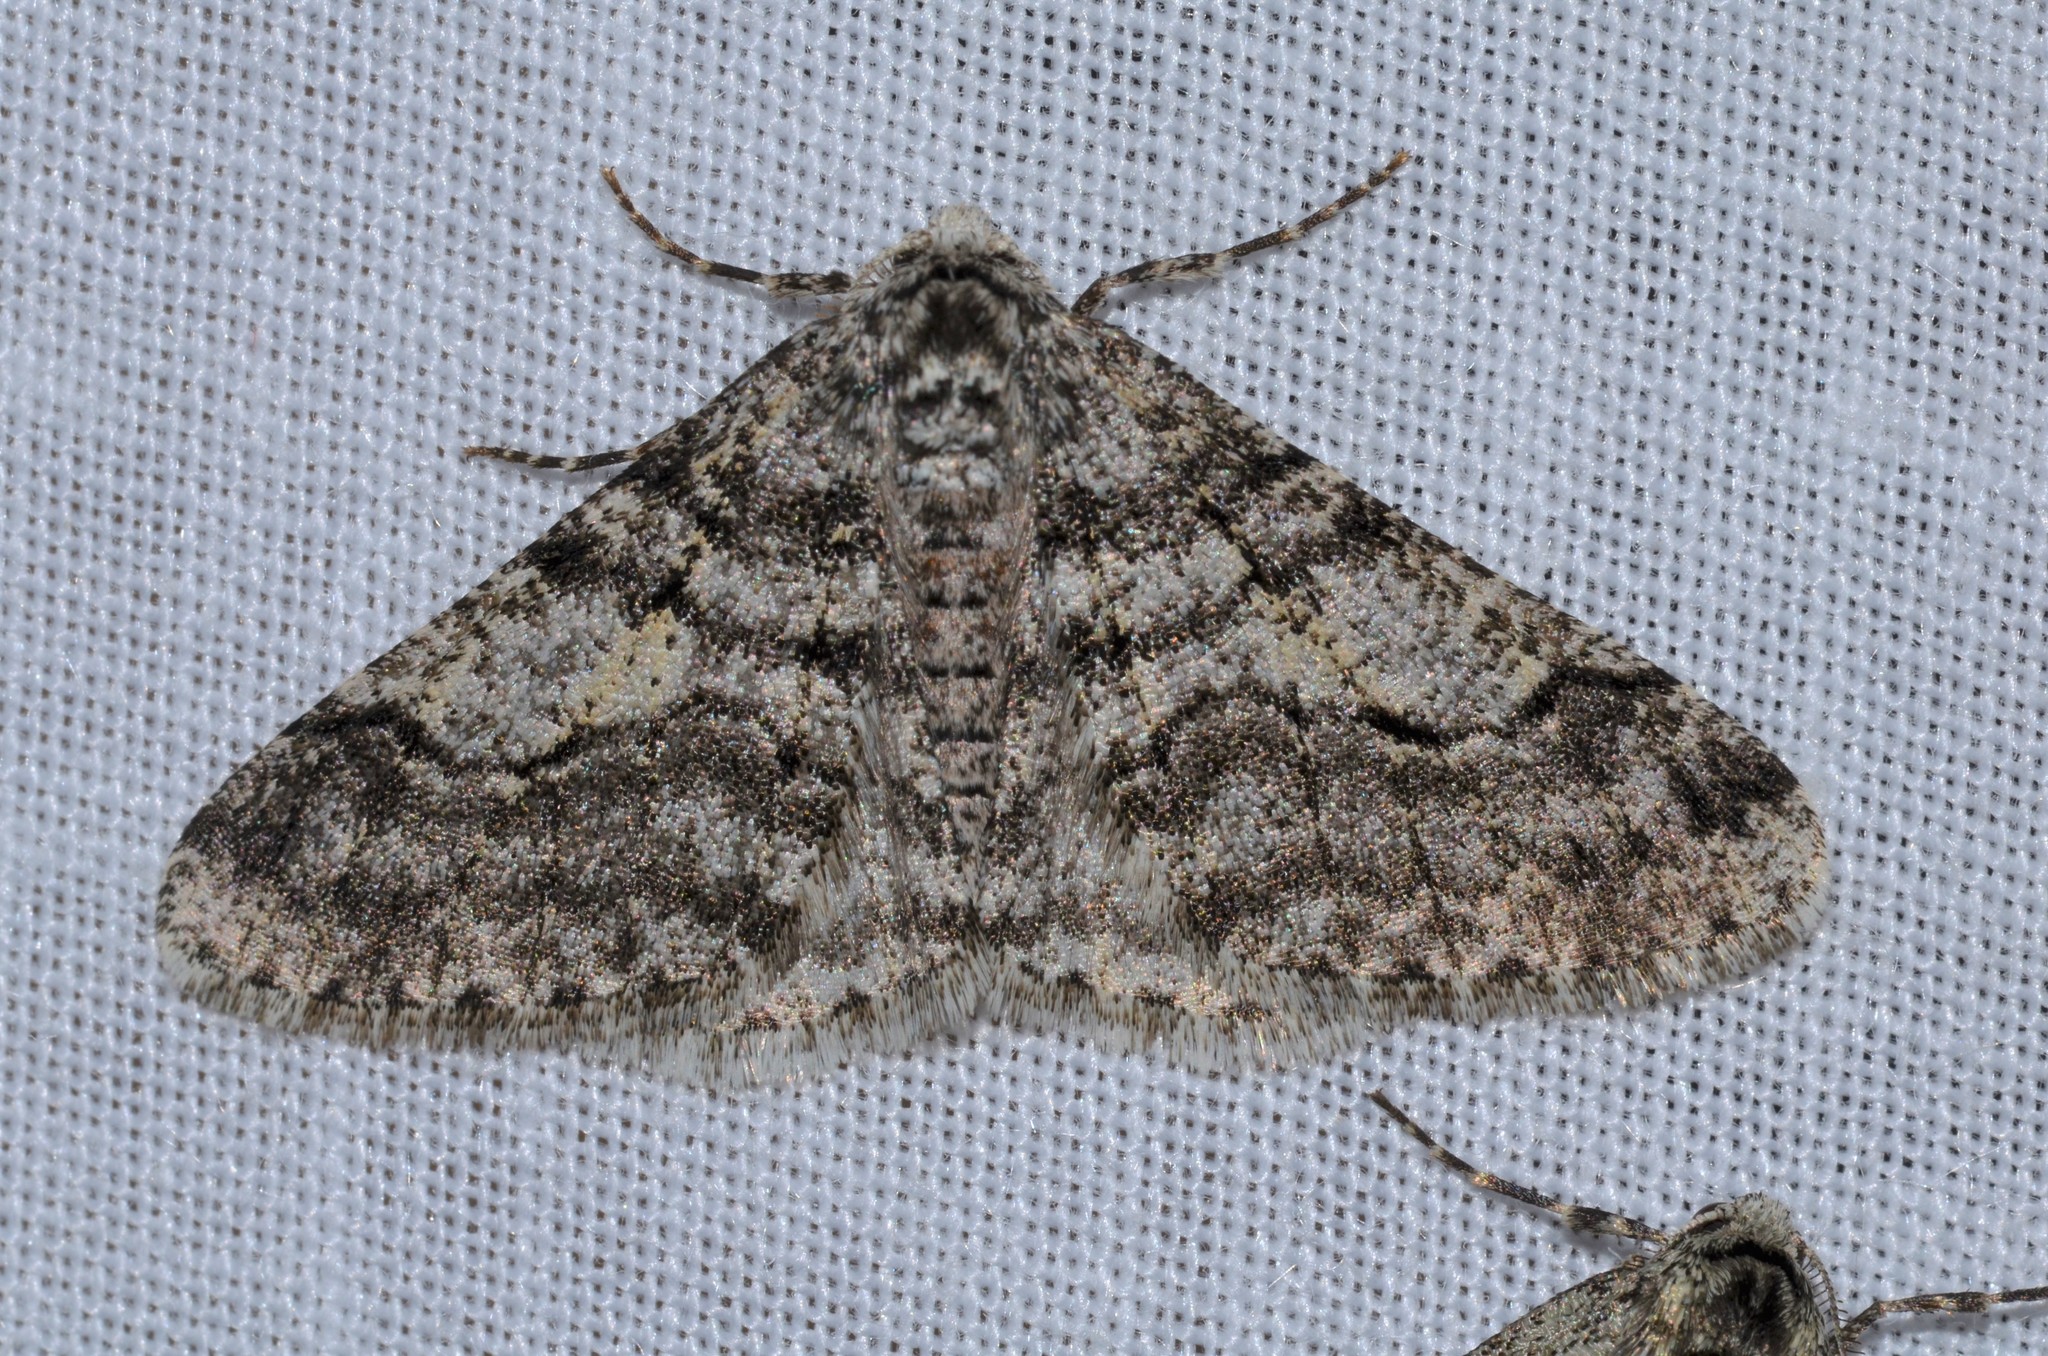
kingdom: Animalia
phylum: Arthropoda
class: Insecta
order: Lepidoptera
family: Geometridae
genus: Phigalia
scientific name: Phigalia titea
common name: Spiny looper
